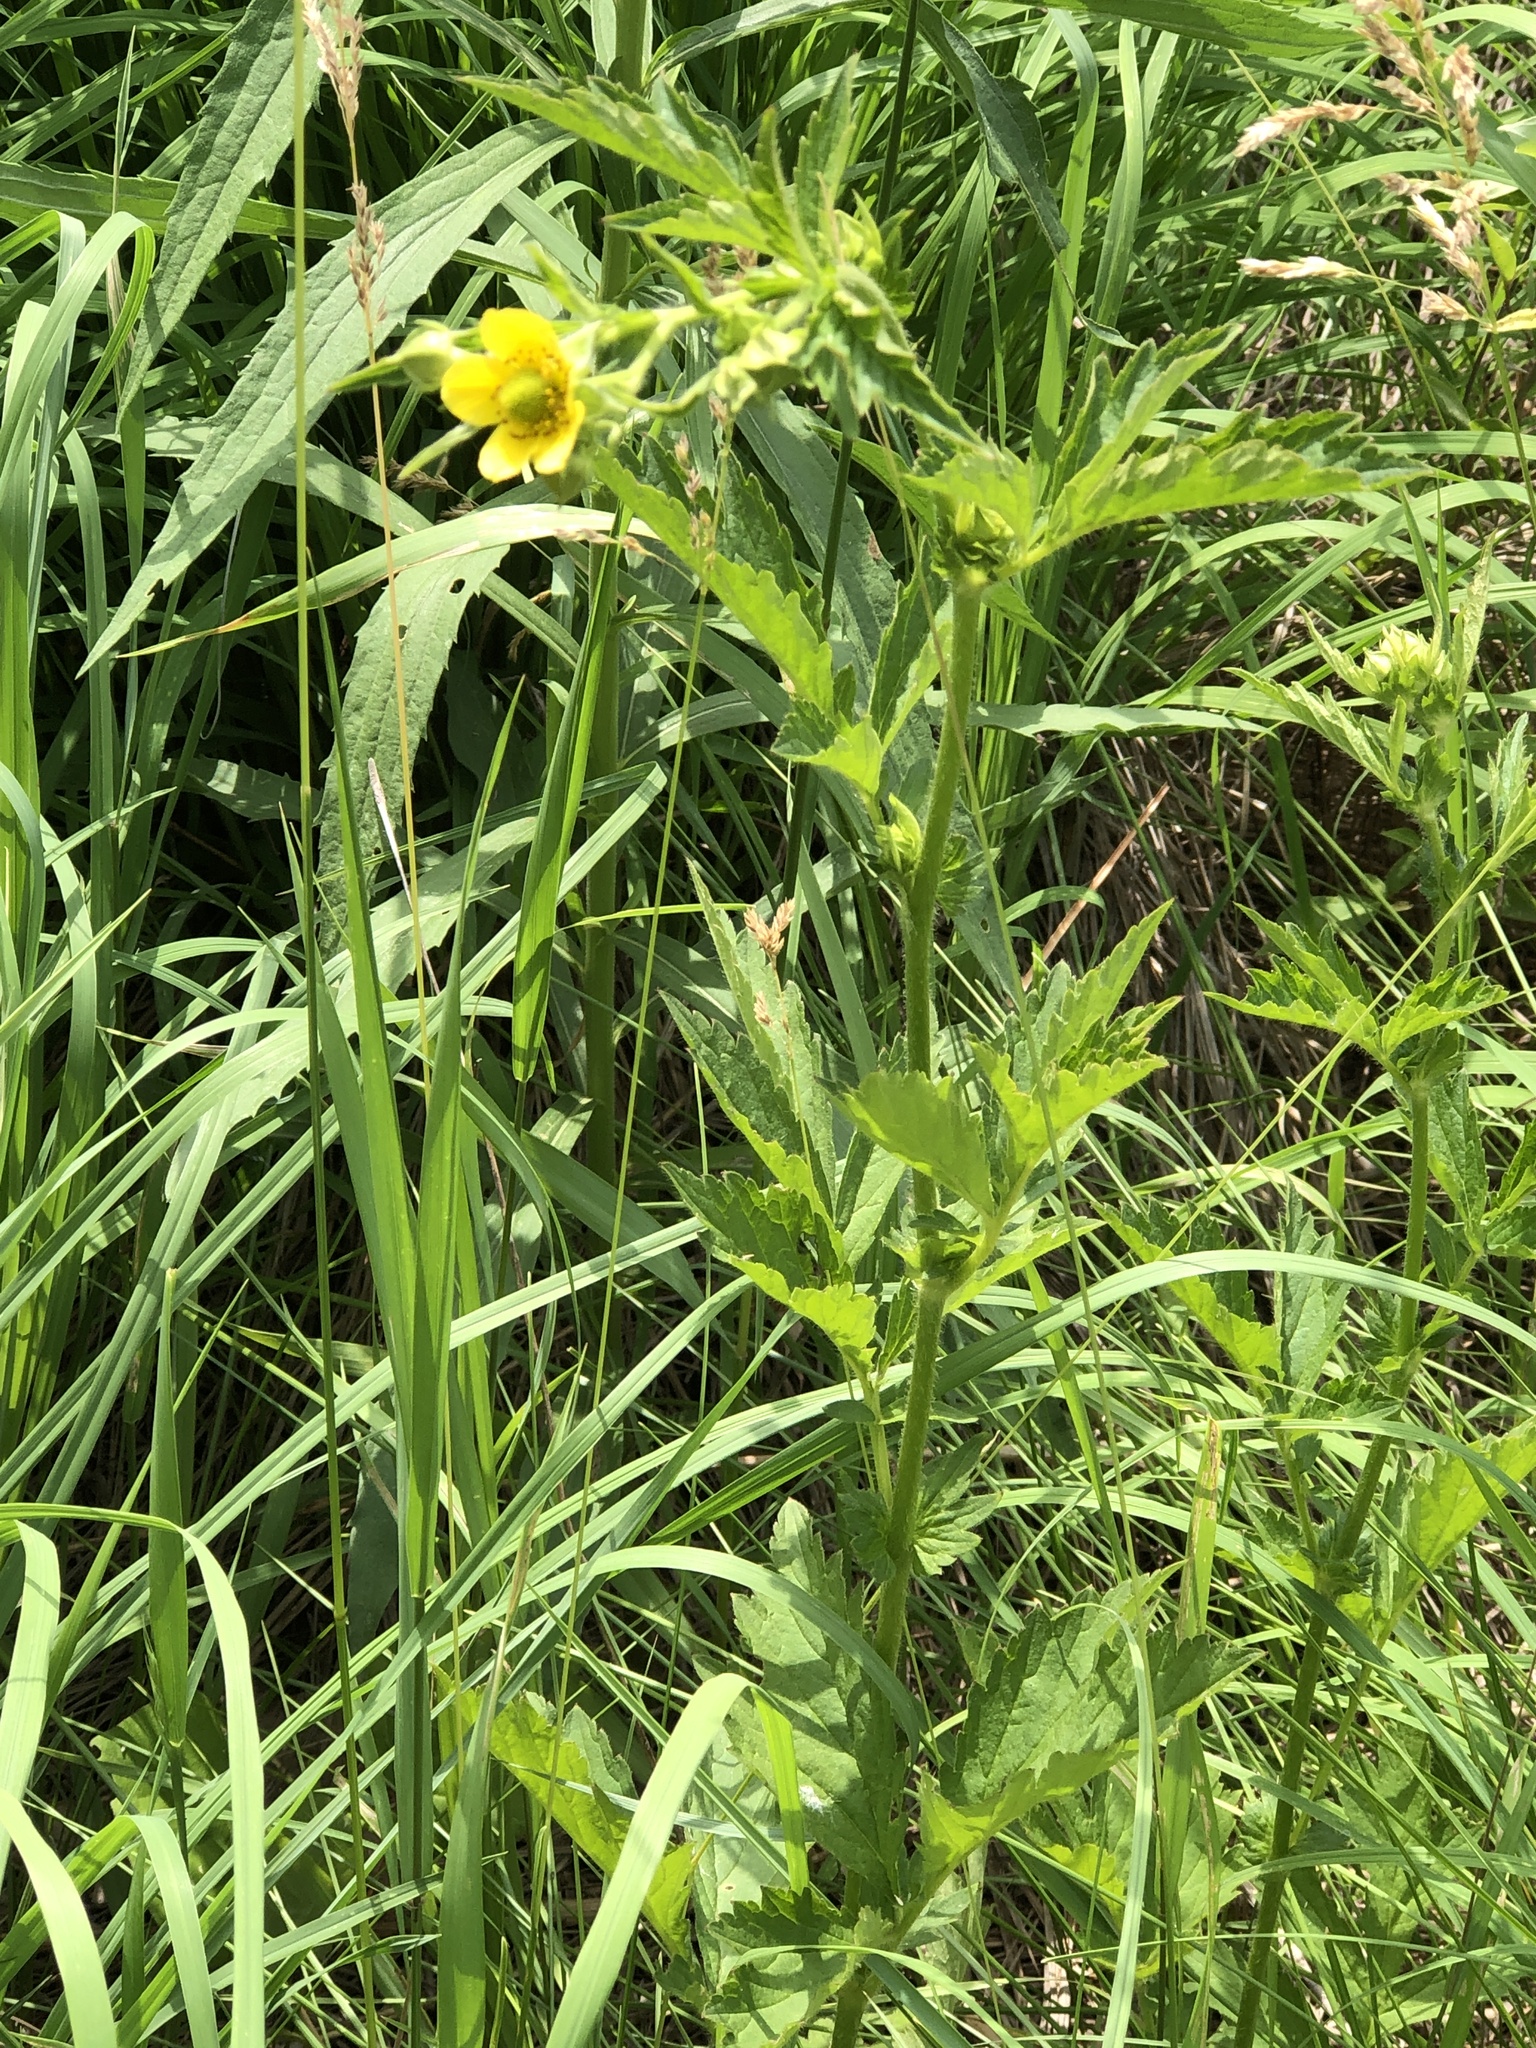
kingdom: Plantae
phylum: Tracheophyta
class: Magnoliopsida
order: Rosales
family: Rosaceae
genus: Geum
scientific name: Geum aleppicum
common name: Yellow avens
